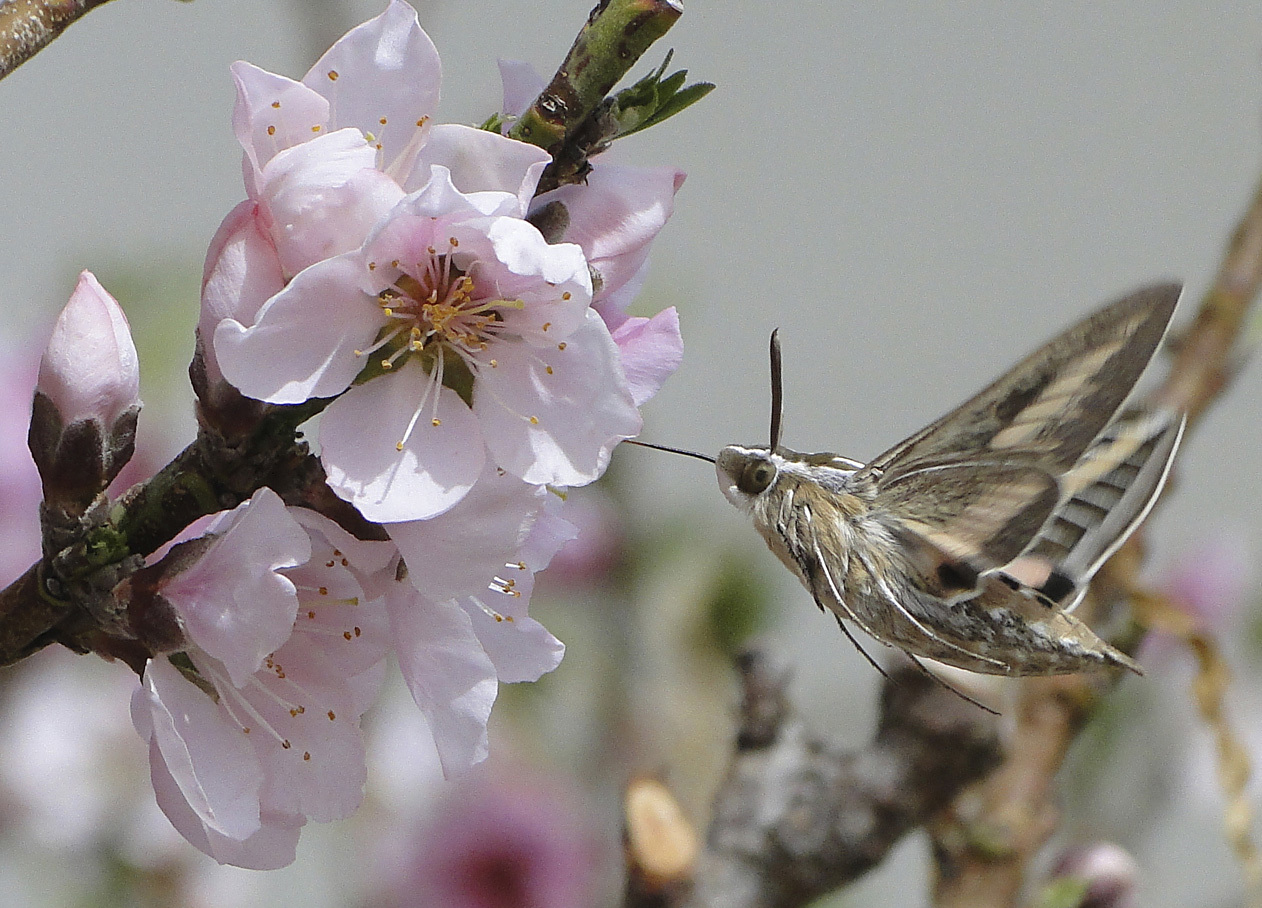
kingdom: Animalia
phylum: Arthropoda
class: Insecta
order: Lepidoptera
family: Sphingidae
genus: Hyles
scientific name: Hyles lineata
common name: White-lined sphinx
